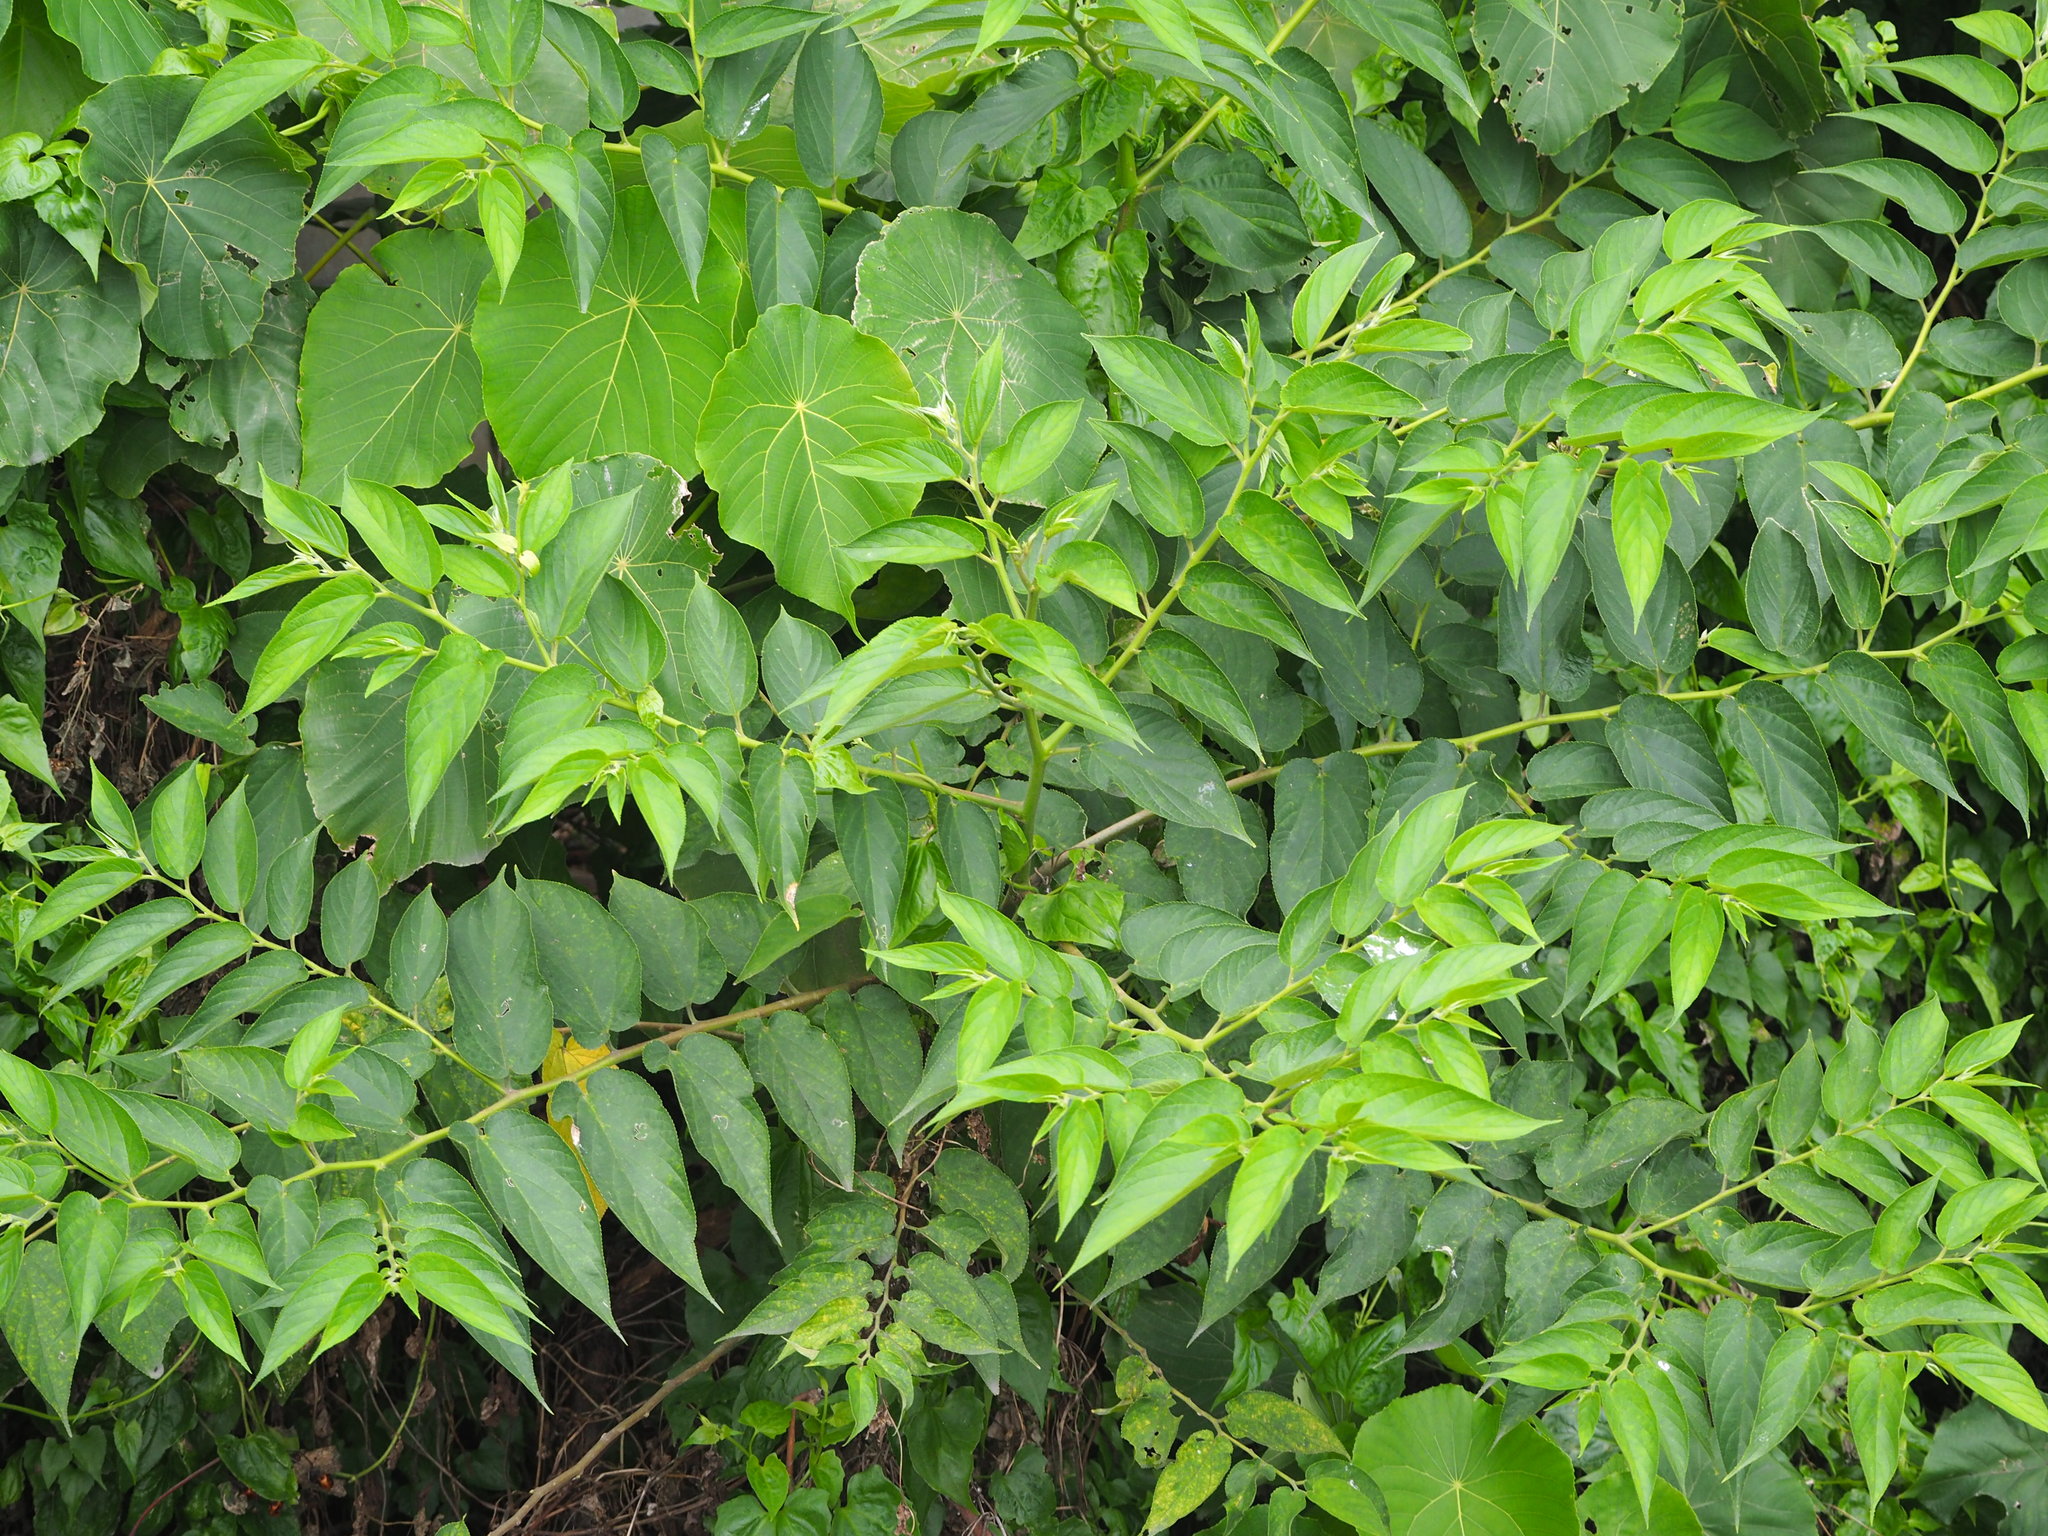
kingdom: Plantae
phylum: Tracheophyta
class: Magnoliopsida
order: Rosales
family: Cannabaceae
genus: Trema
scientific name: Trema orientale
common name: Indian charcoal tree
